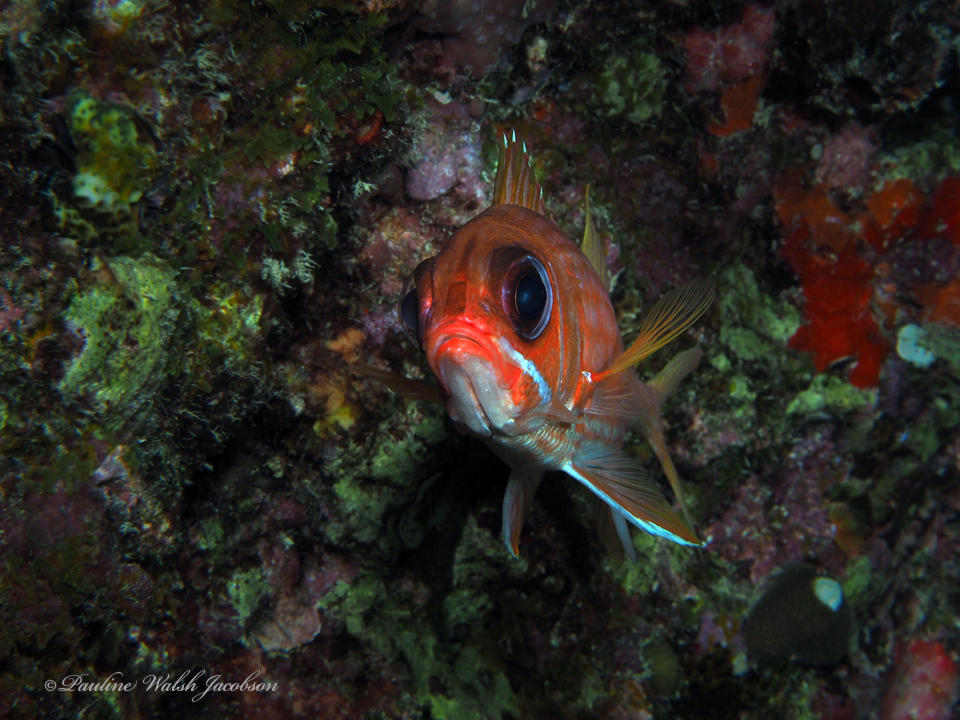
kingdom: Animalia
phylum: Chordata
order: Beryciformes
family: Holocentridae
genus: Holocentrus
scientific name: Holocentrus rufus
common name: Longspine squirrelfish
